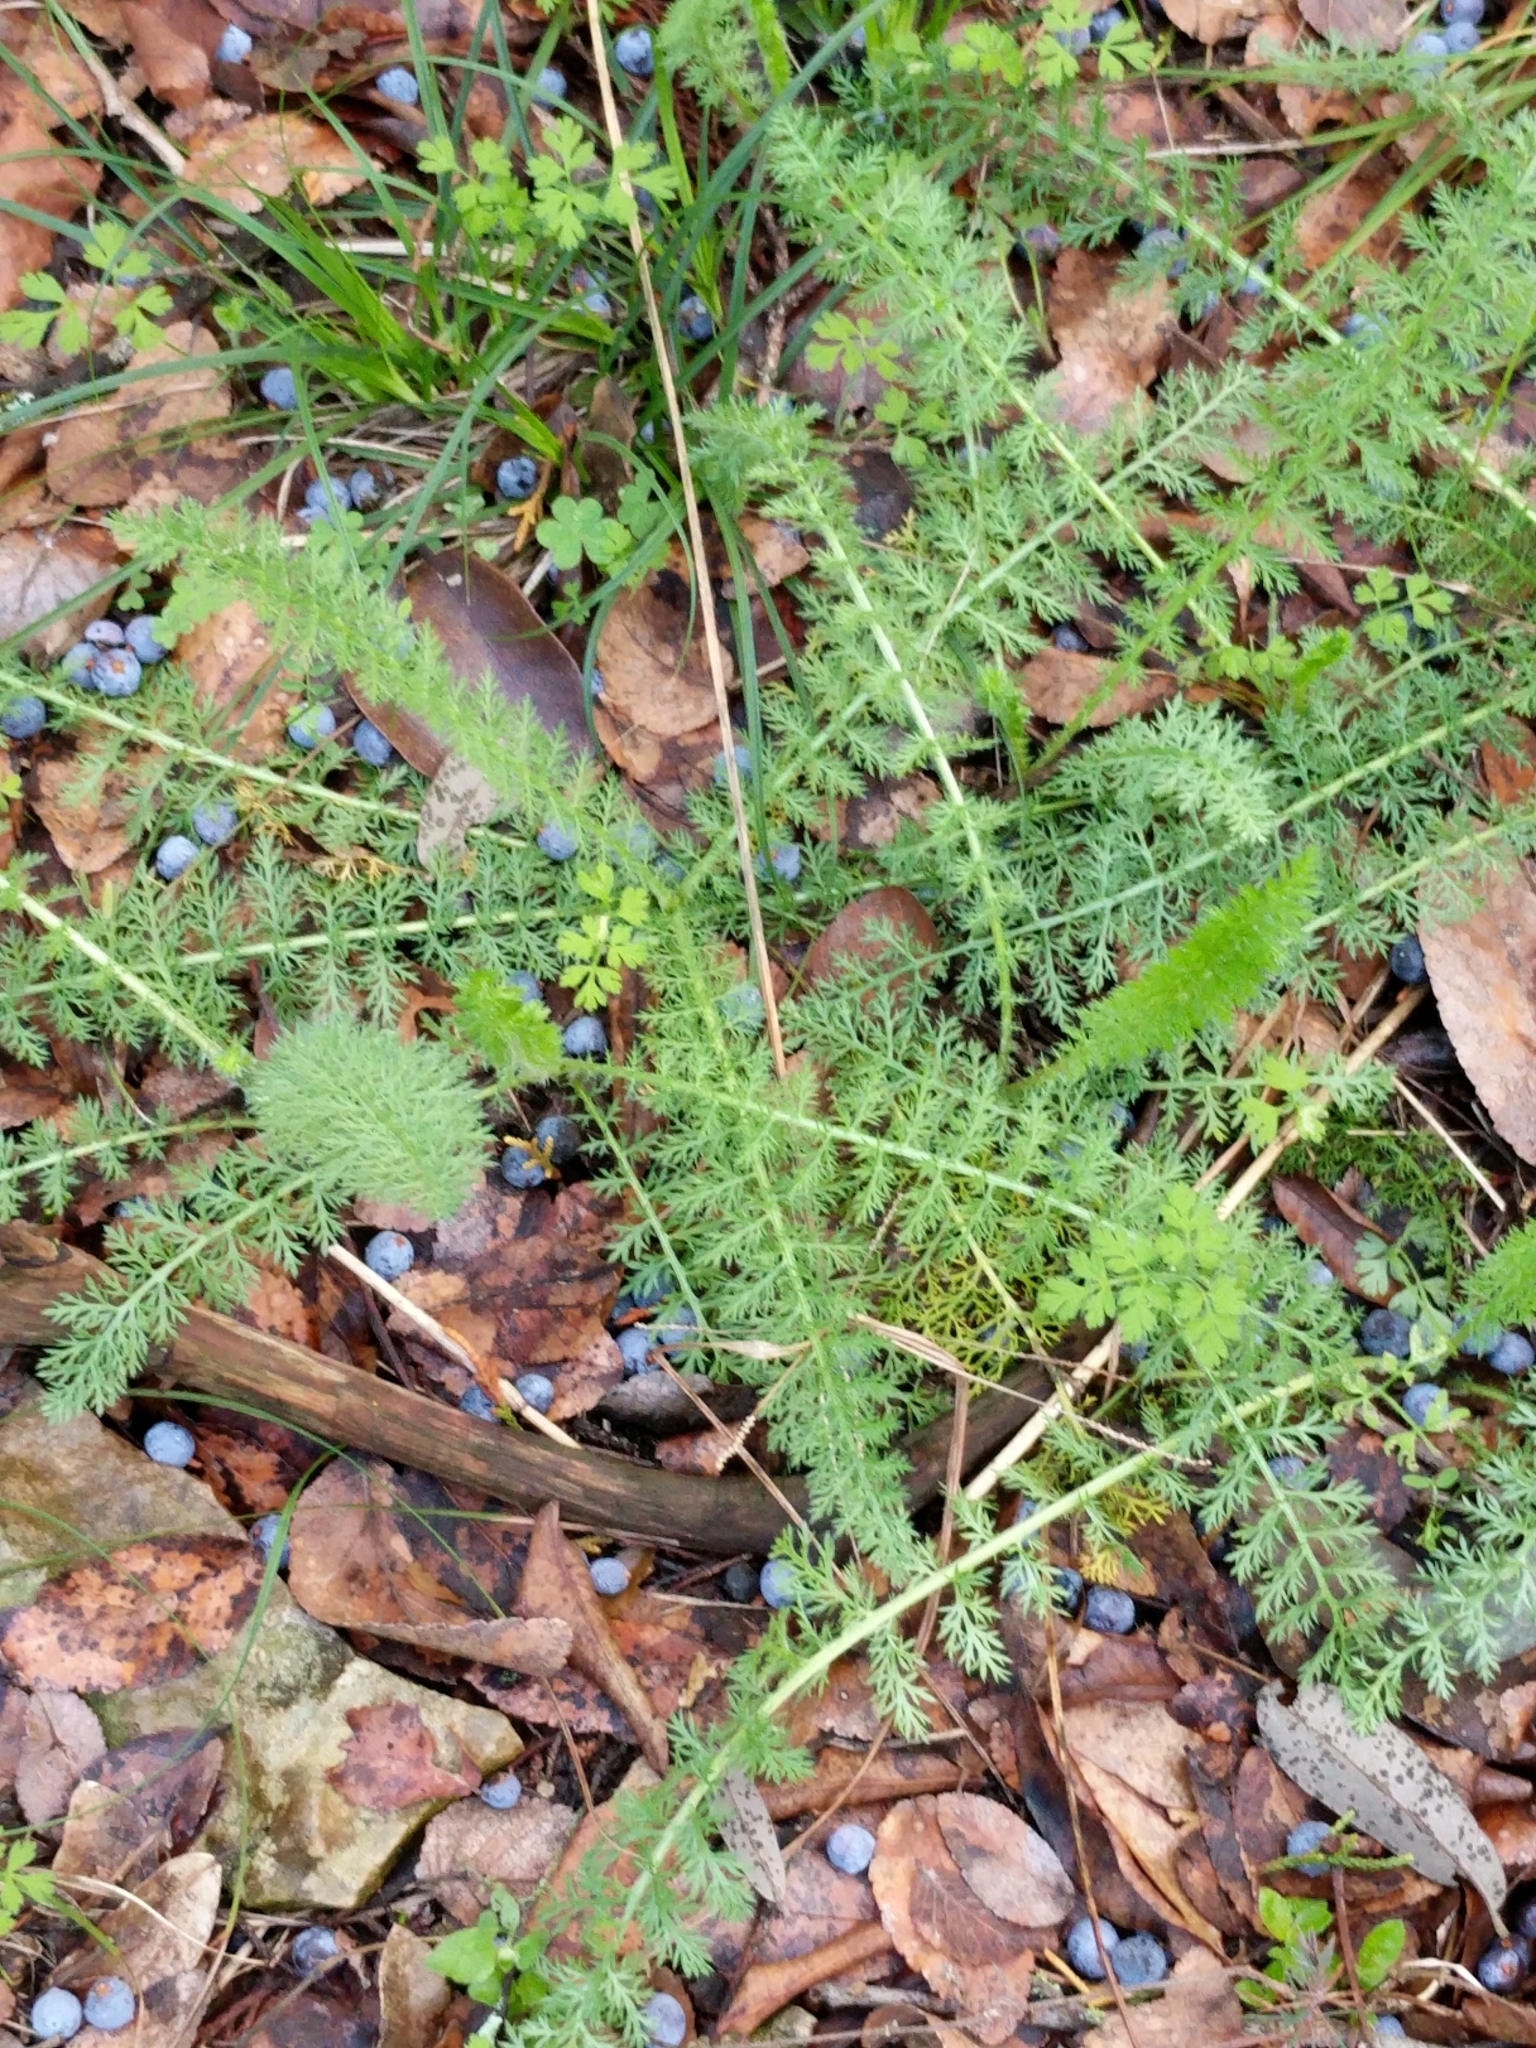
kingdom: Plantae
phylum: Tracheophyta
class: Magnoliopsida
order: Asterales
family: Asteraceae
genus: Achillea
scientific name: Achillea millefolium
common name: Yarrow
